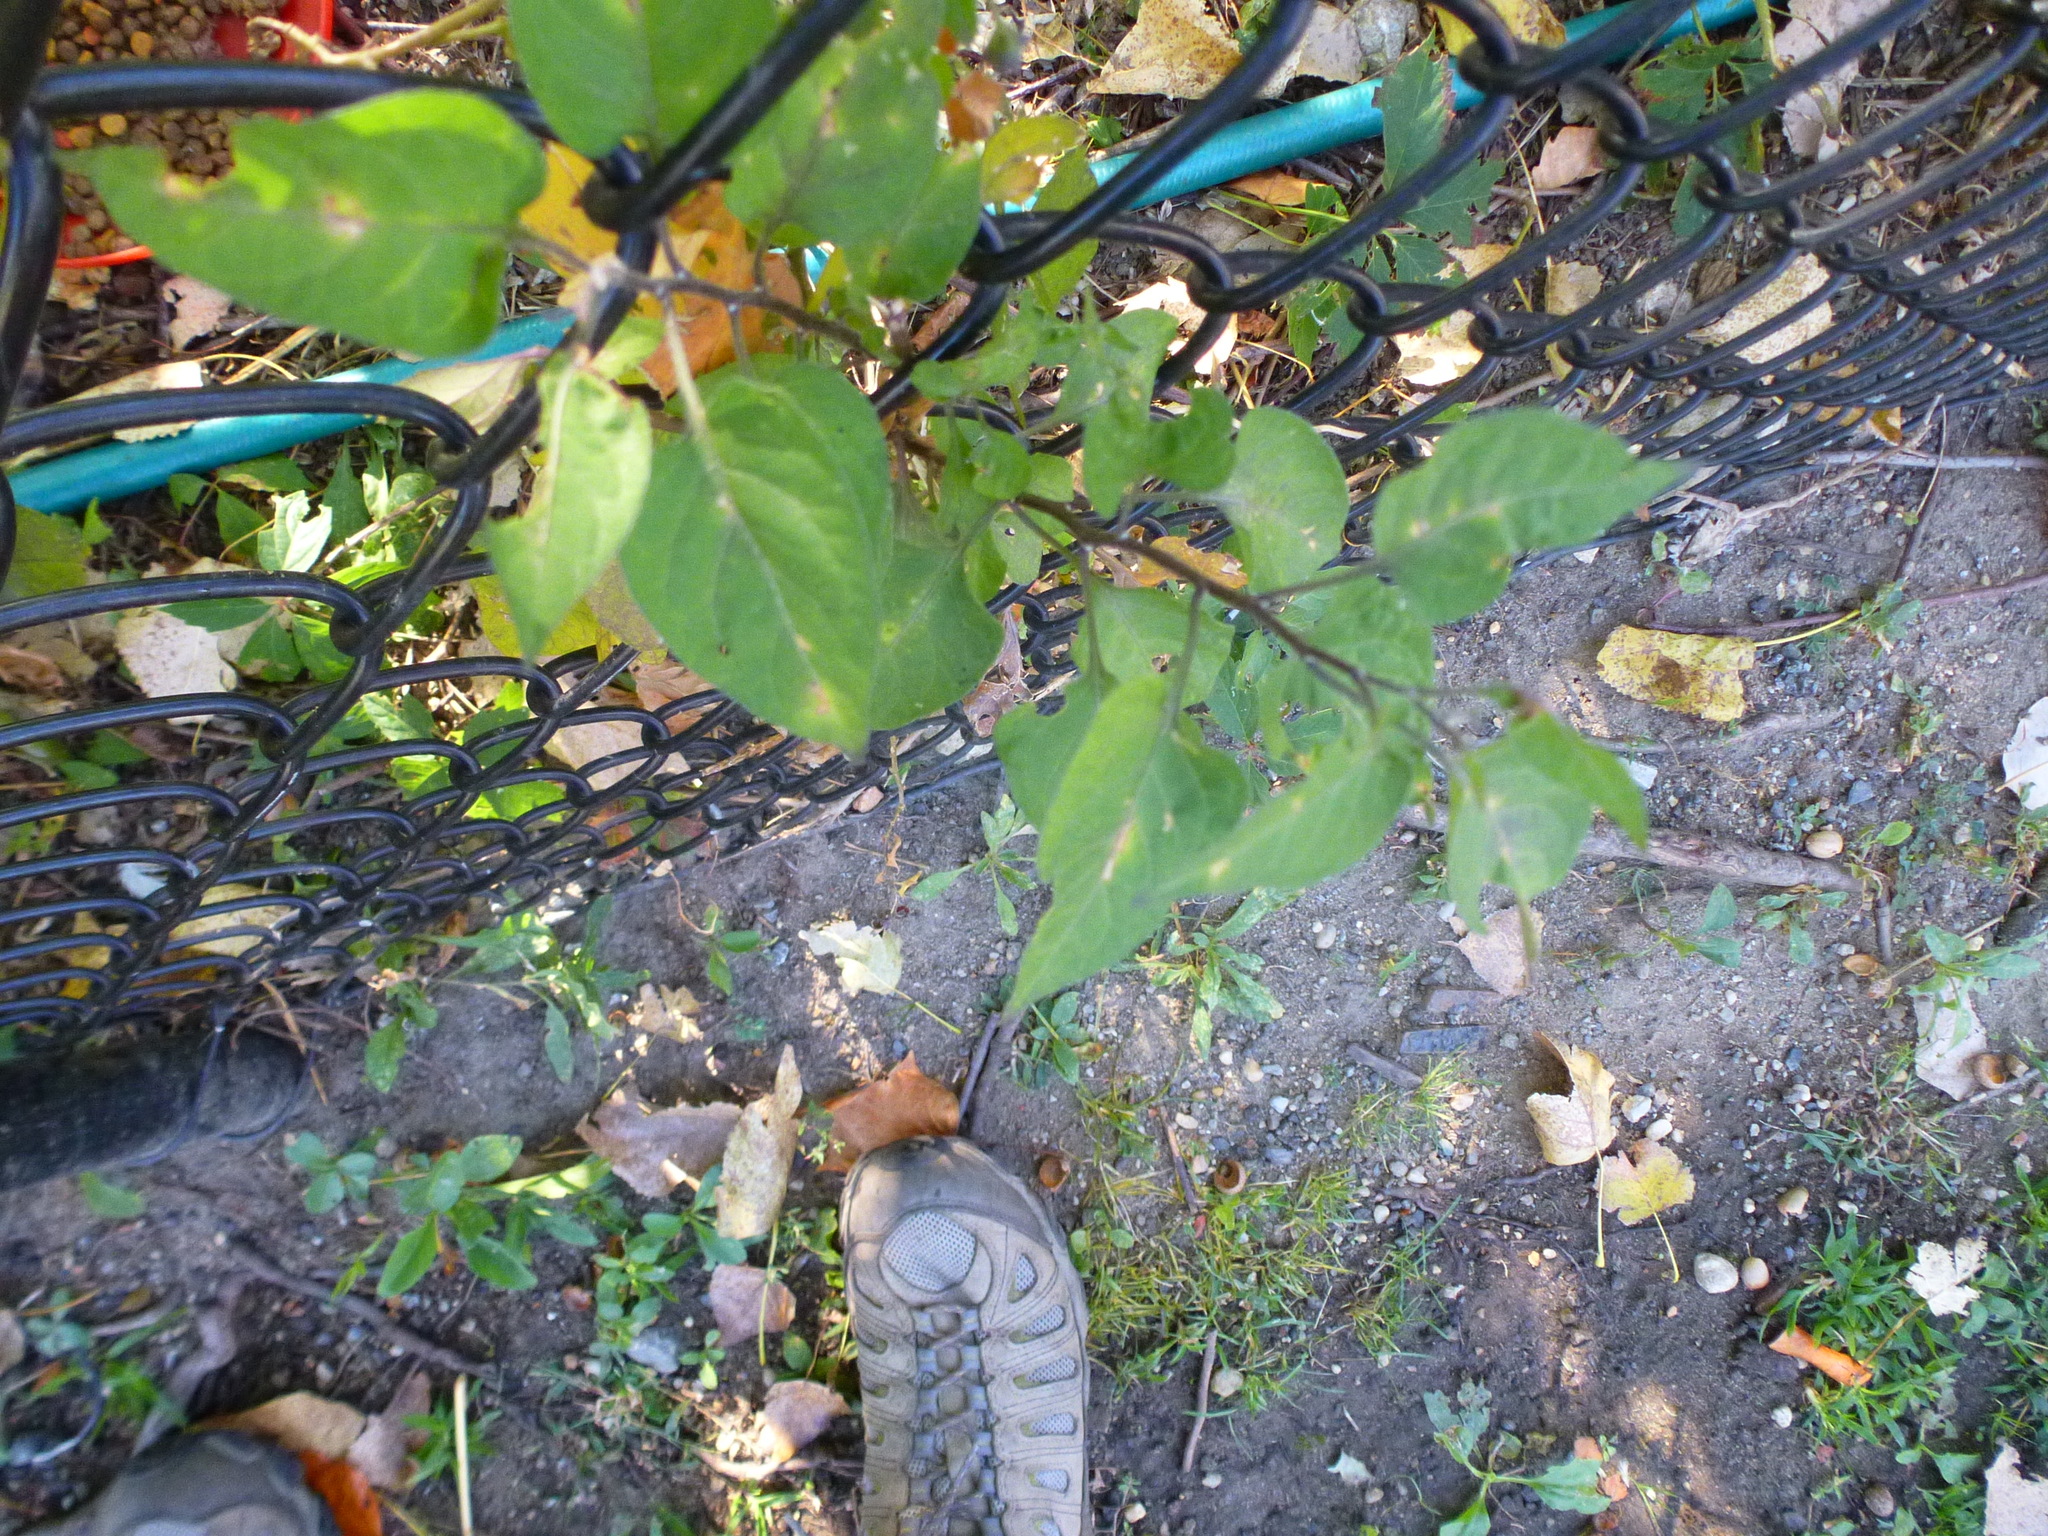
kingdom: Plantae
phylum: Tracheophyta
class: Magnoliopsida
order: Solanales
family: Solanaceae
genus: Solanum
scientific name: Solanum dulcamara
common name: Climbing nightshade
